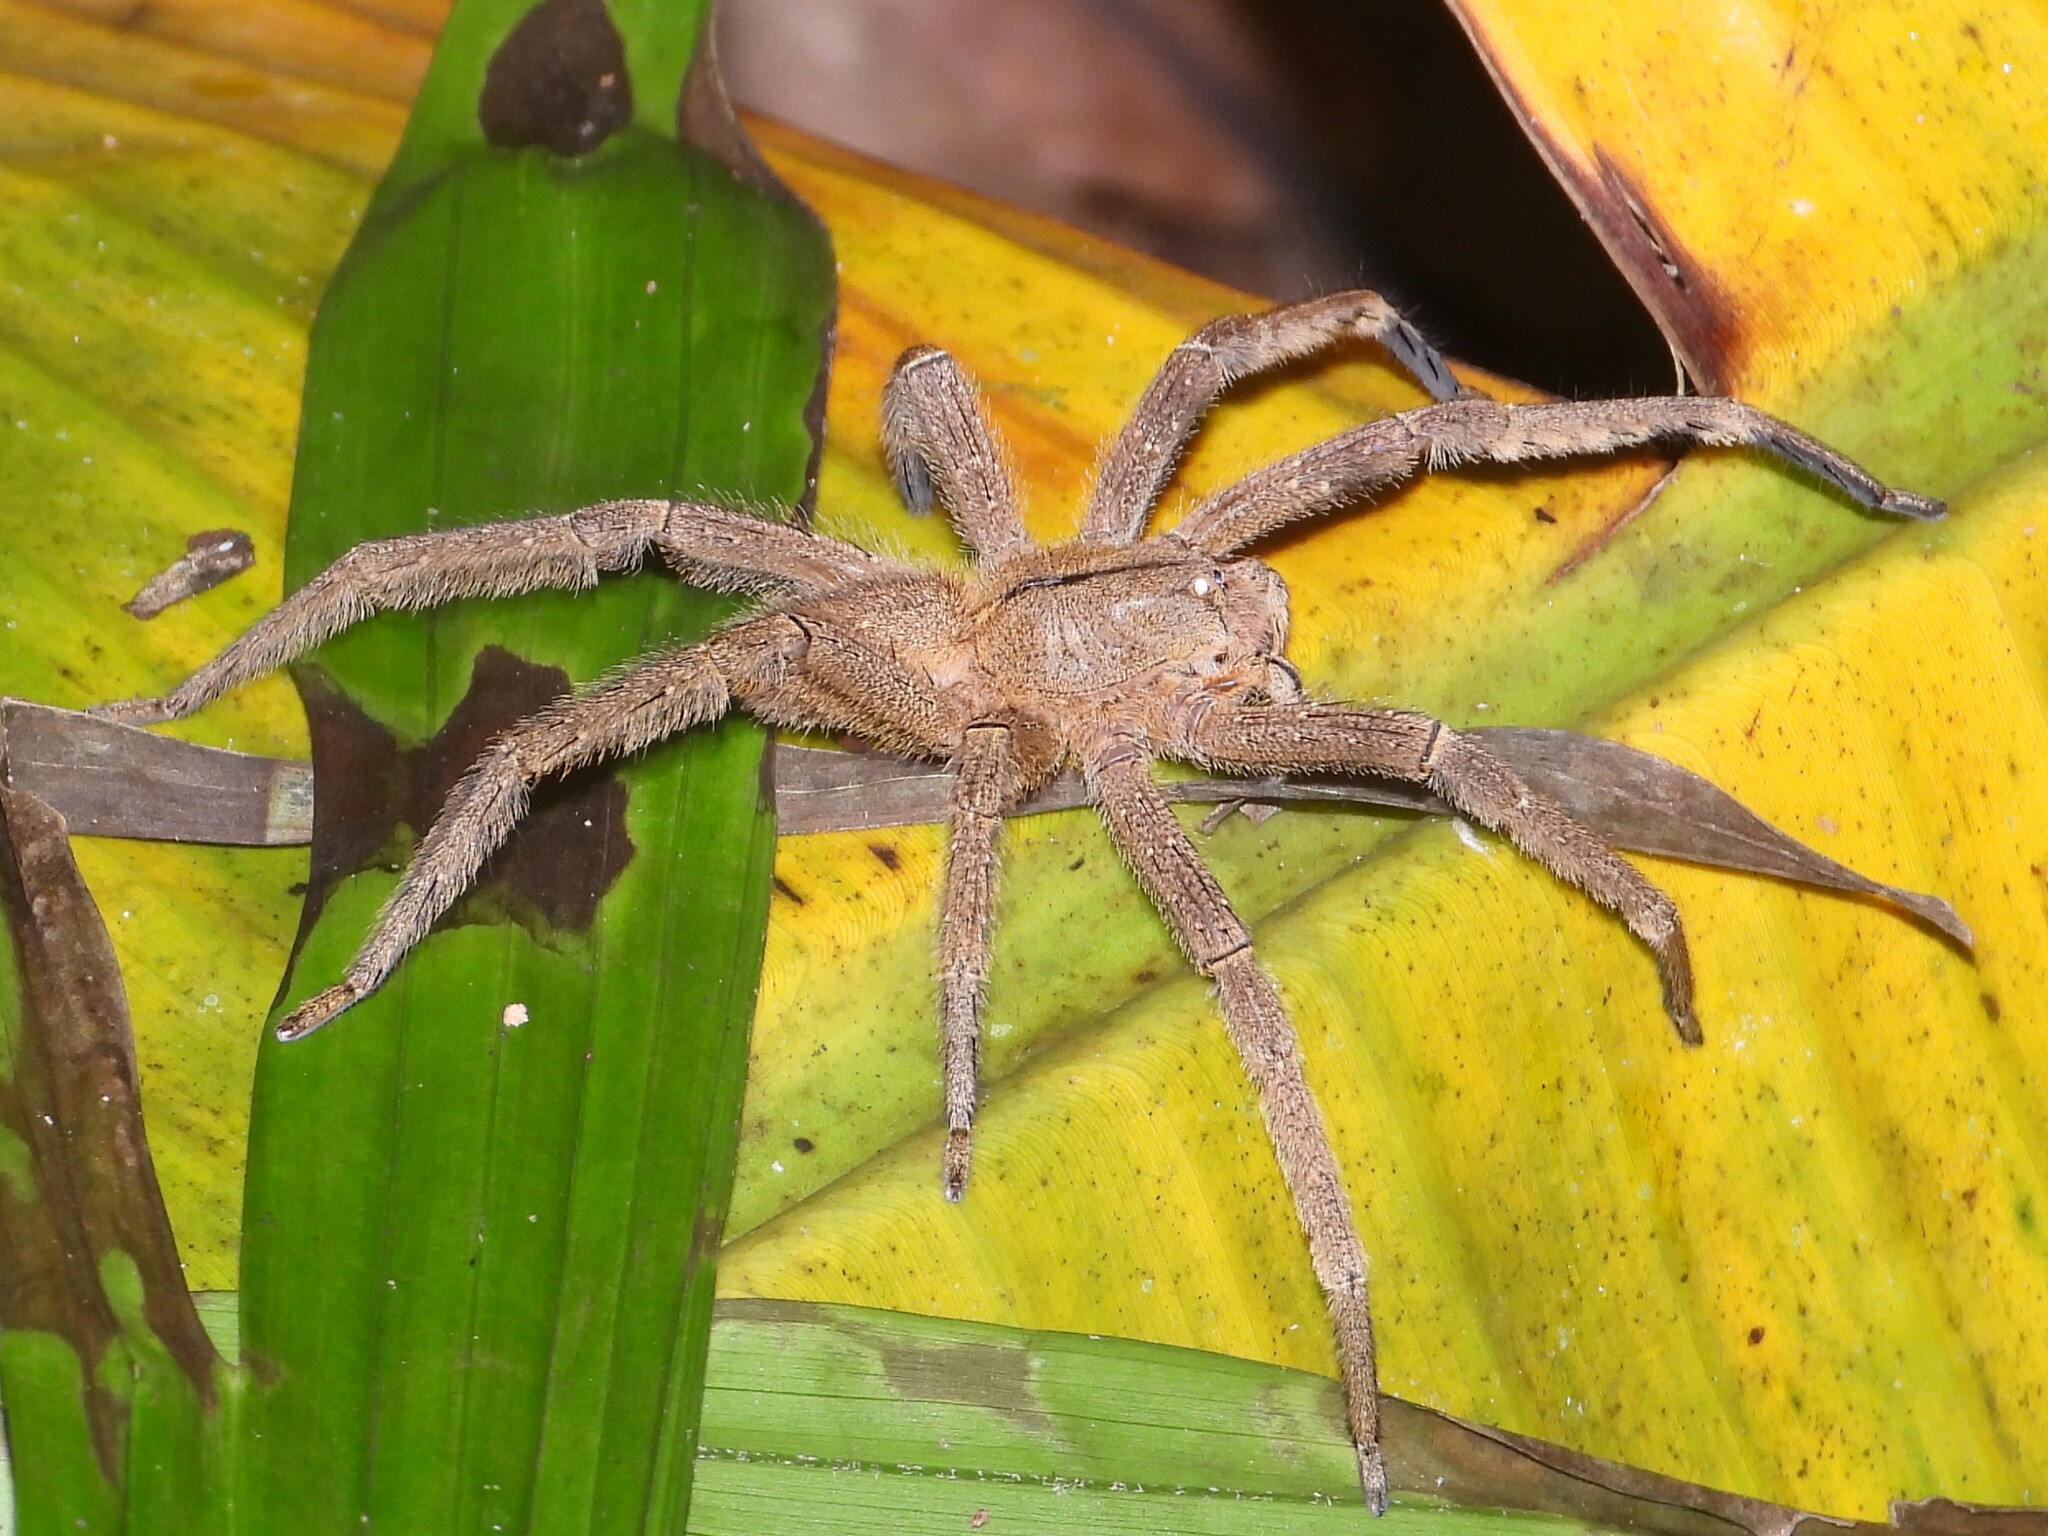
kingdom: Animalia
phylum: Arthropoda
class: Arachnida
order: Araneae
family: Ctenidae
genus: Phoneutria
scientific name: Phoneutria depilata
